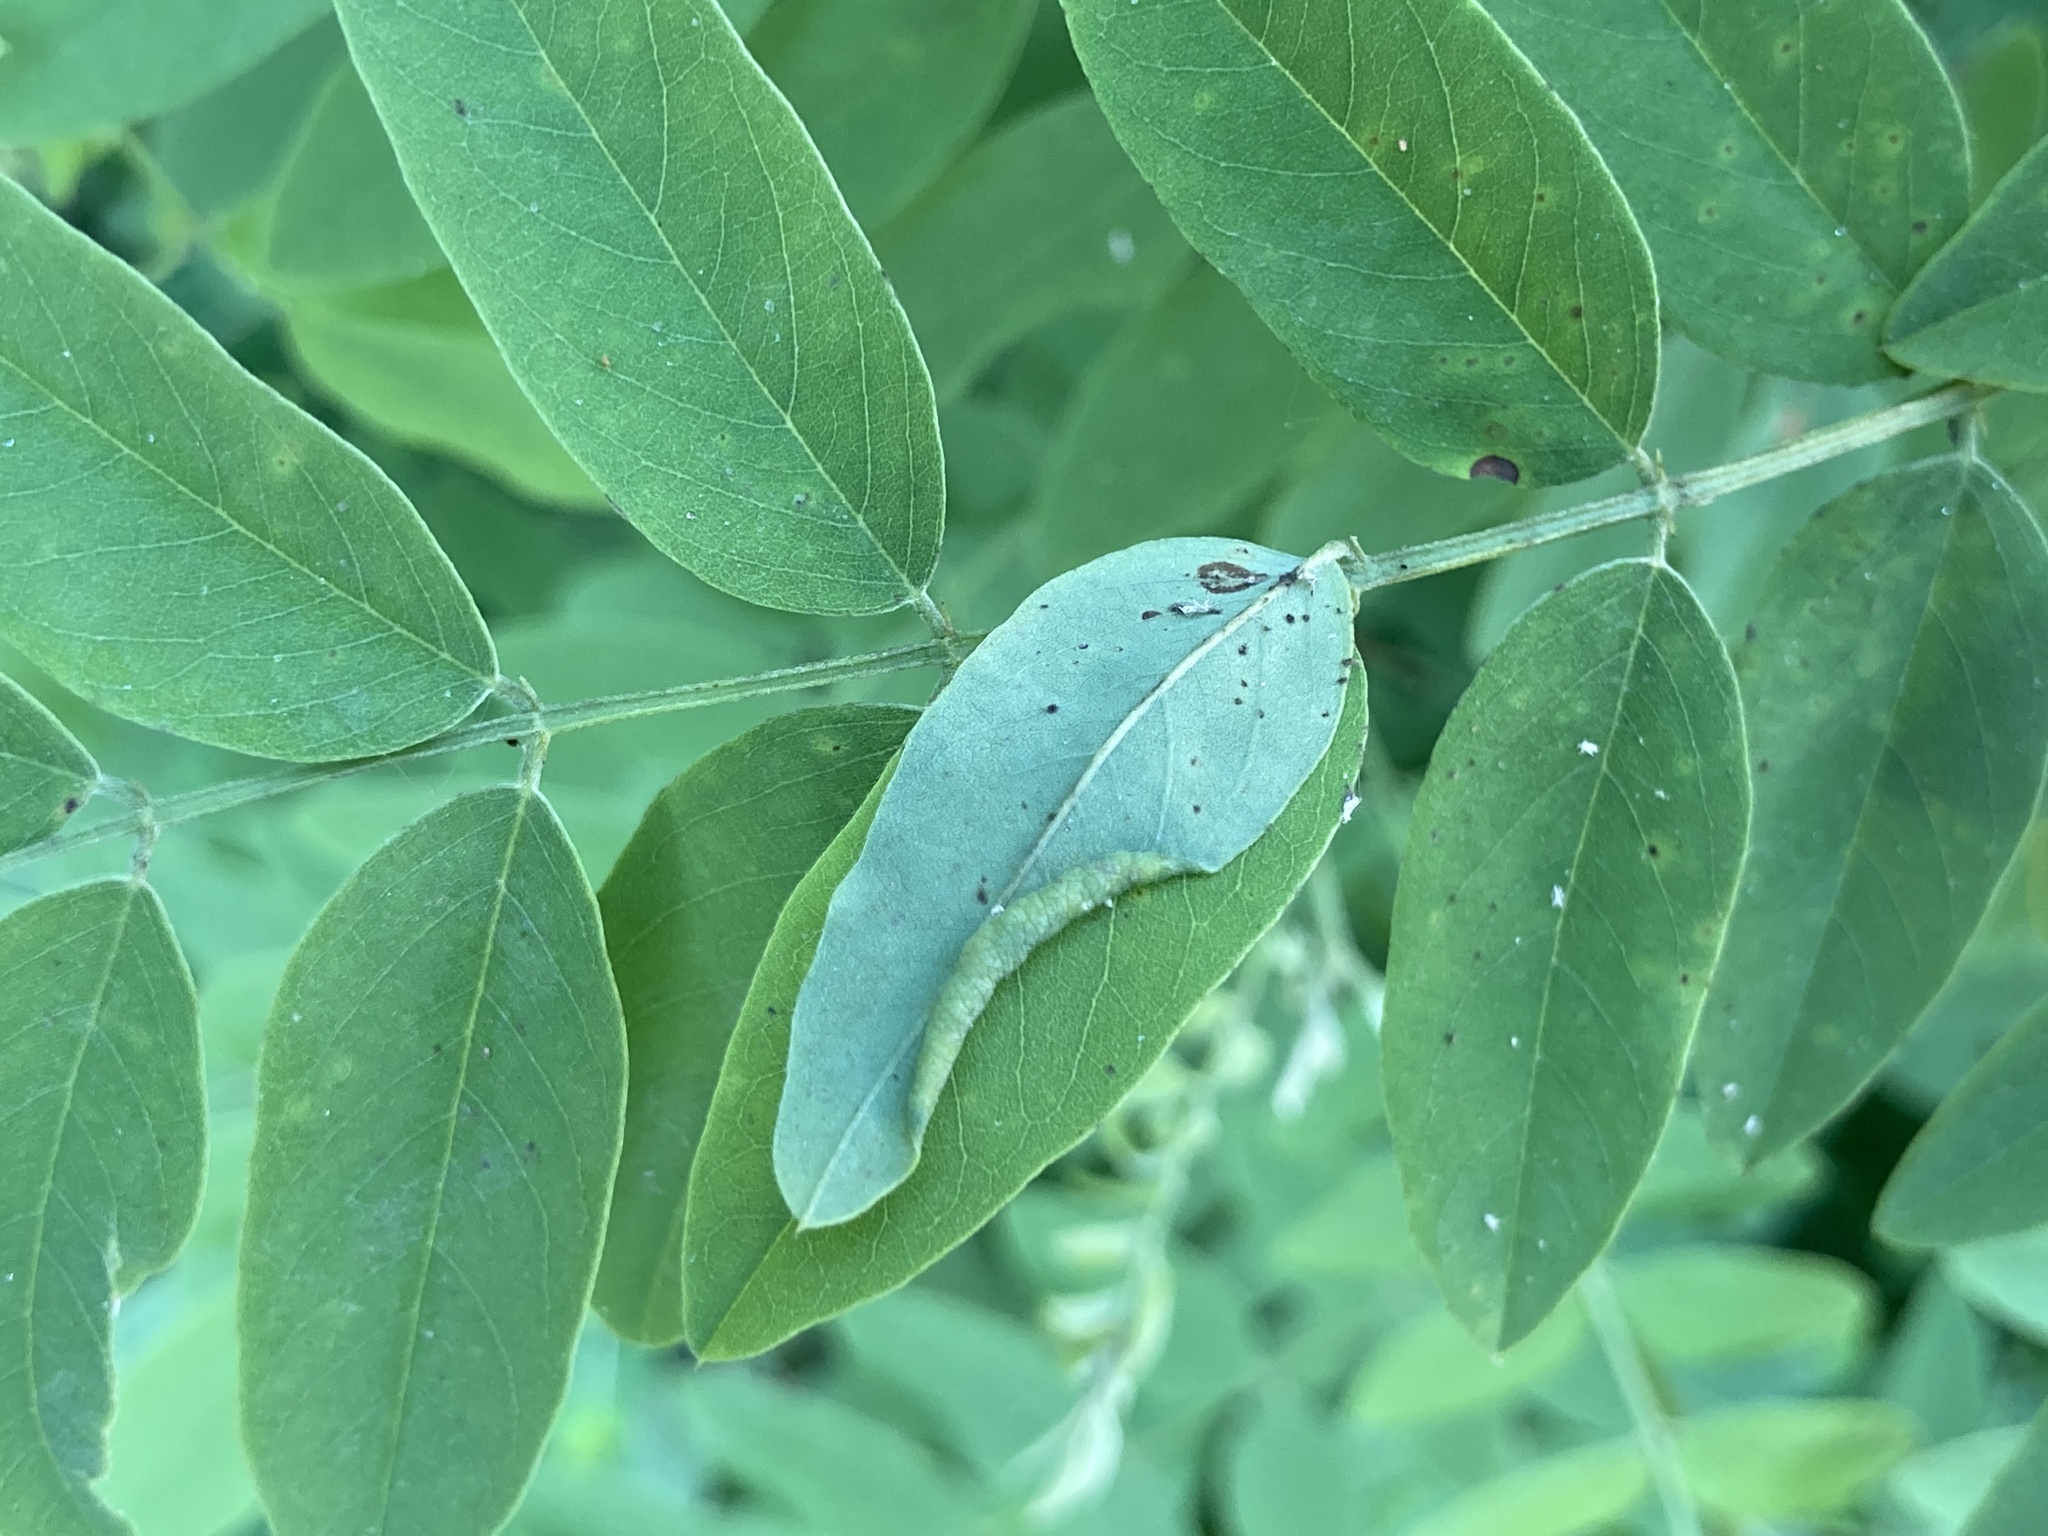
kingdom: Animalia
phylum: Arthropoda
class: Insecta
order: Diptera
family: Cecidomyiidae
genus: Obolodiplosis
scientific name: Obolodiplosis robiniae
